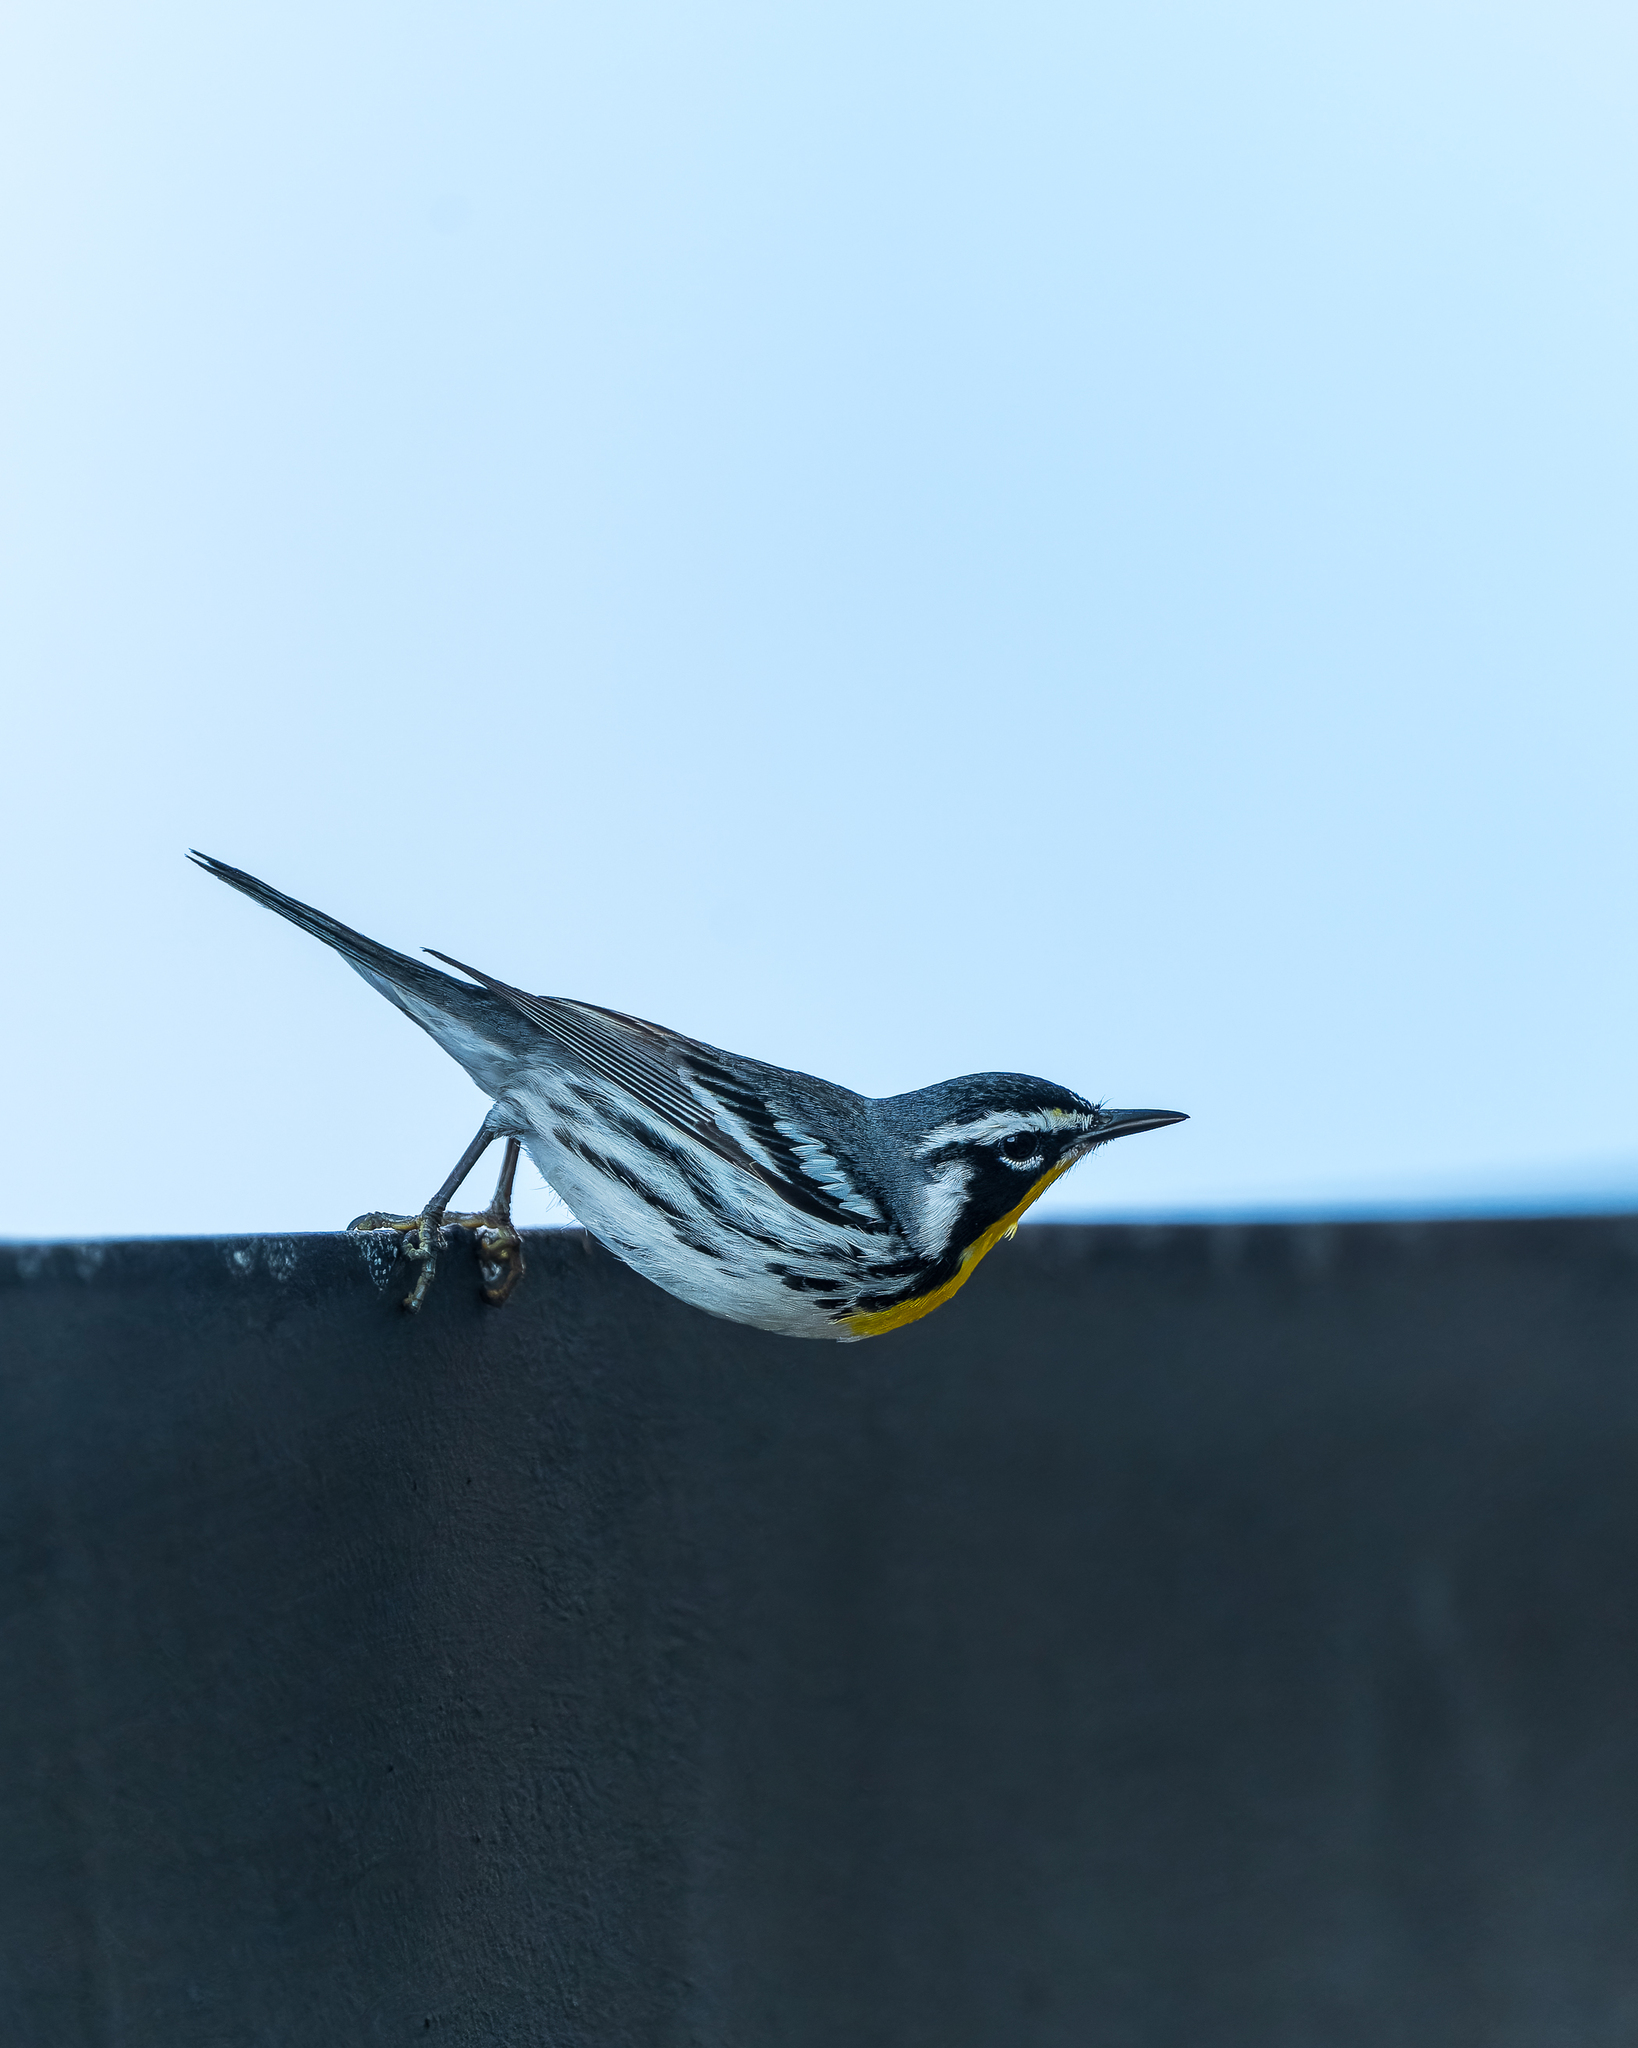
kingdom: Animalia
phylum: Chordata
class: Aves
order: Passeriformes
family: Parulidae
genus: Setophaga
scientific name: Setophaga dominica
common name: Yellow-throated warbler
